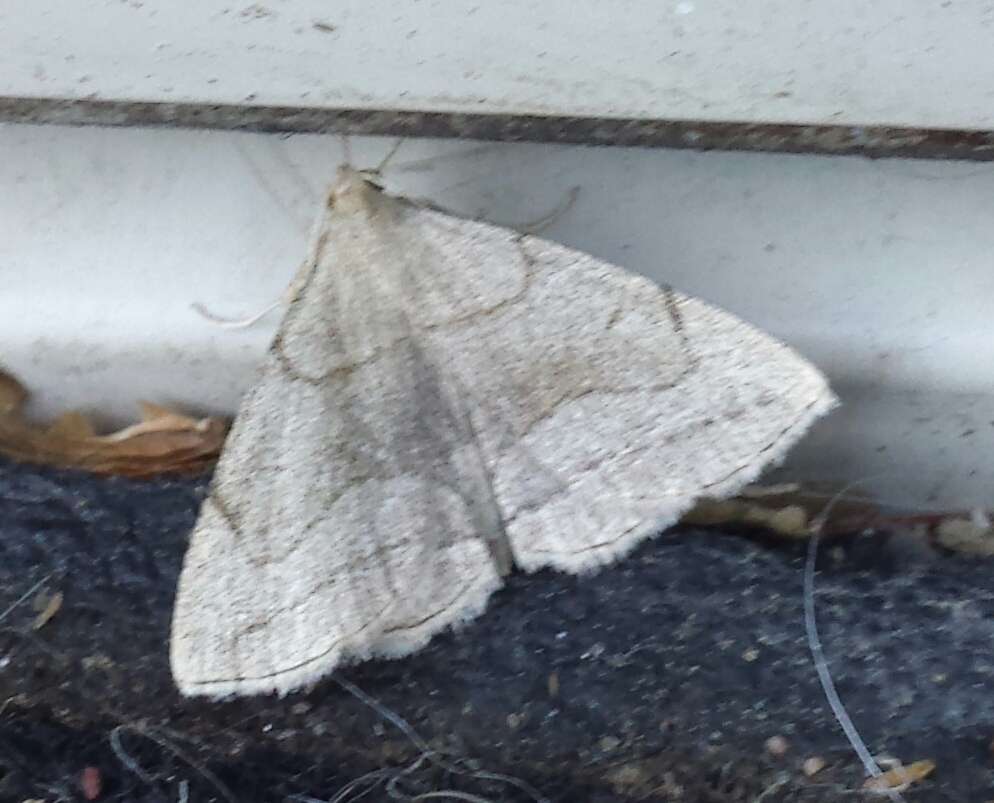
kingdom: Animalia
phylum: Arthropoda
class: Insecta
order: Lepidoptera
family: Erebidae
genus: Zanclognatha
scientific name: Zanclognatha pedipilalis
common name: Grayish fan-foot
